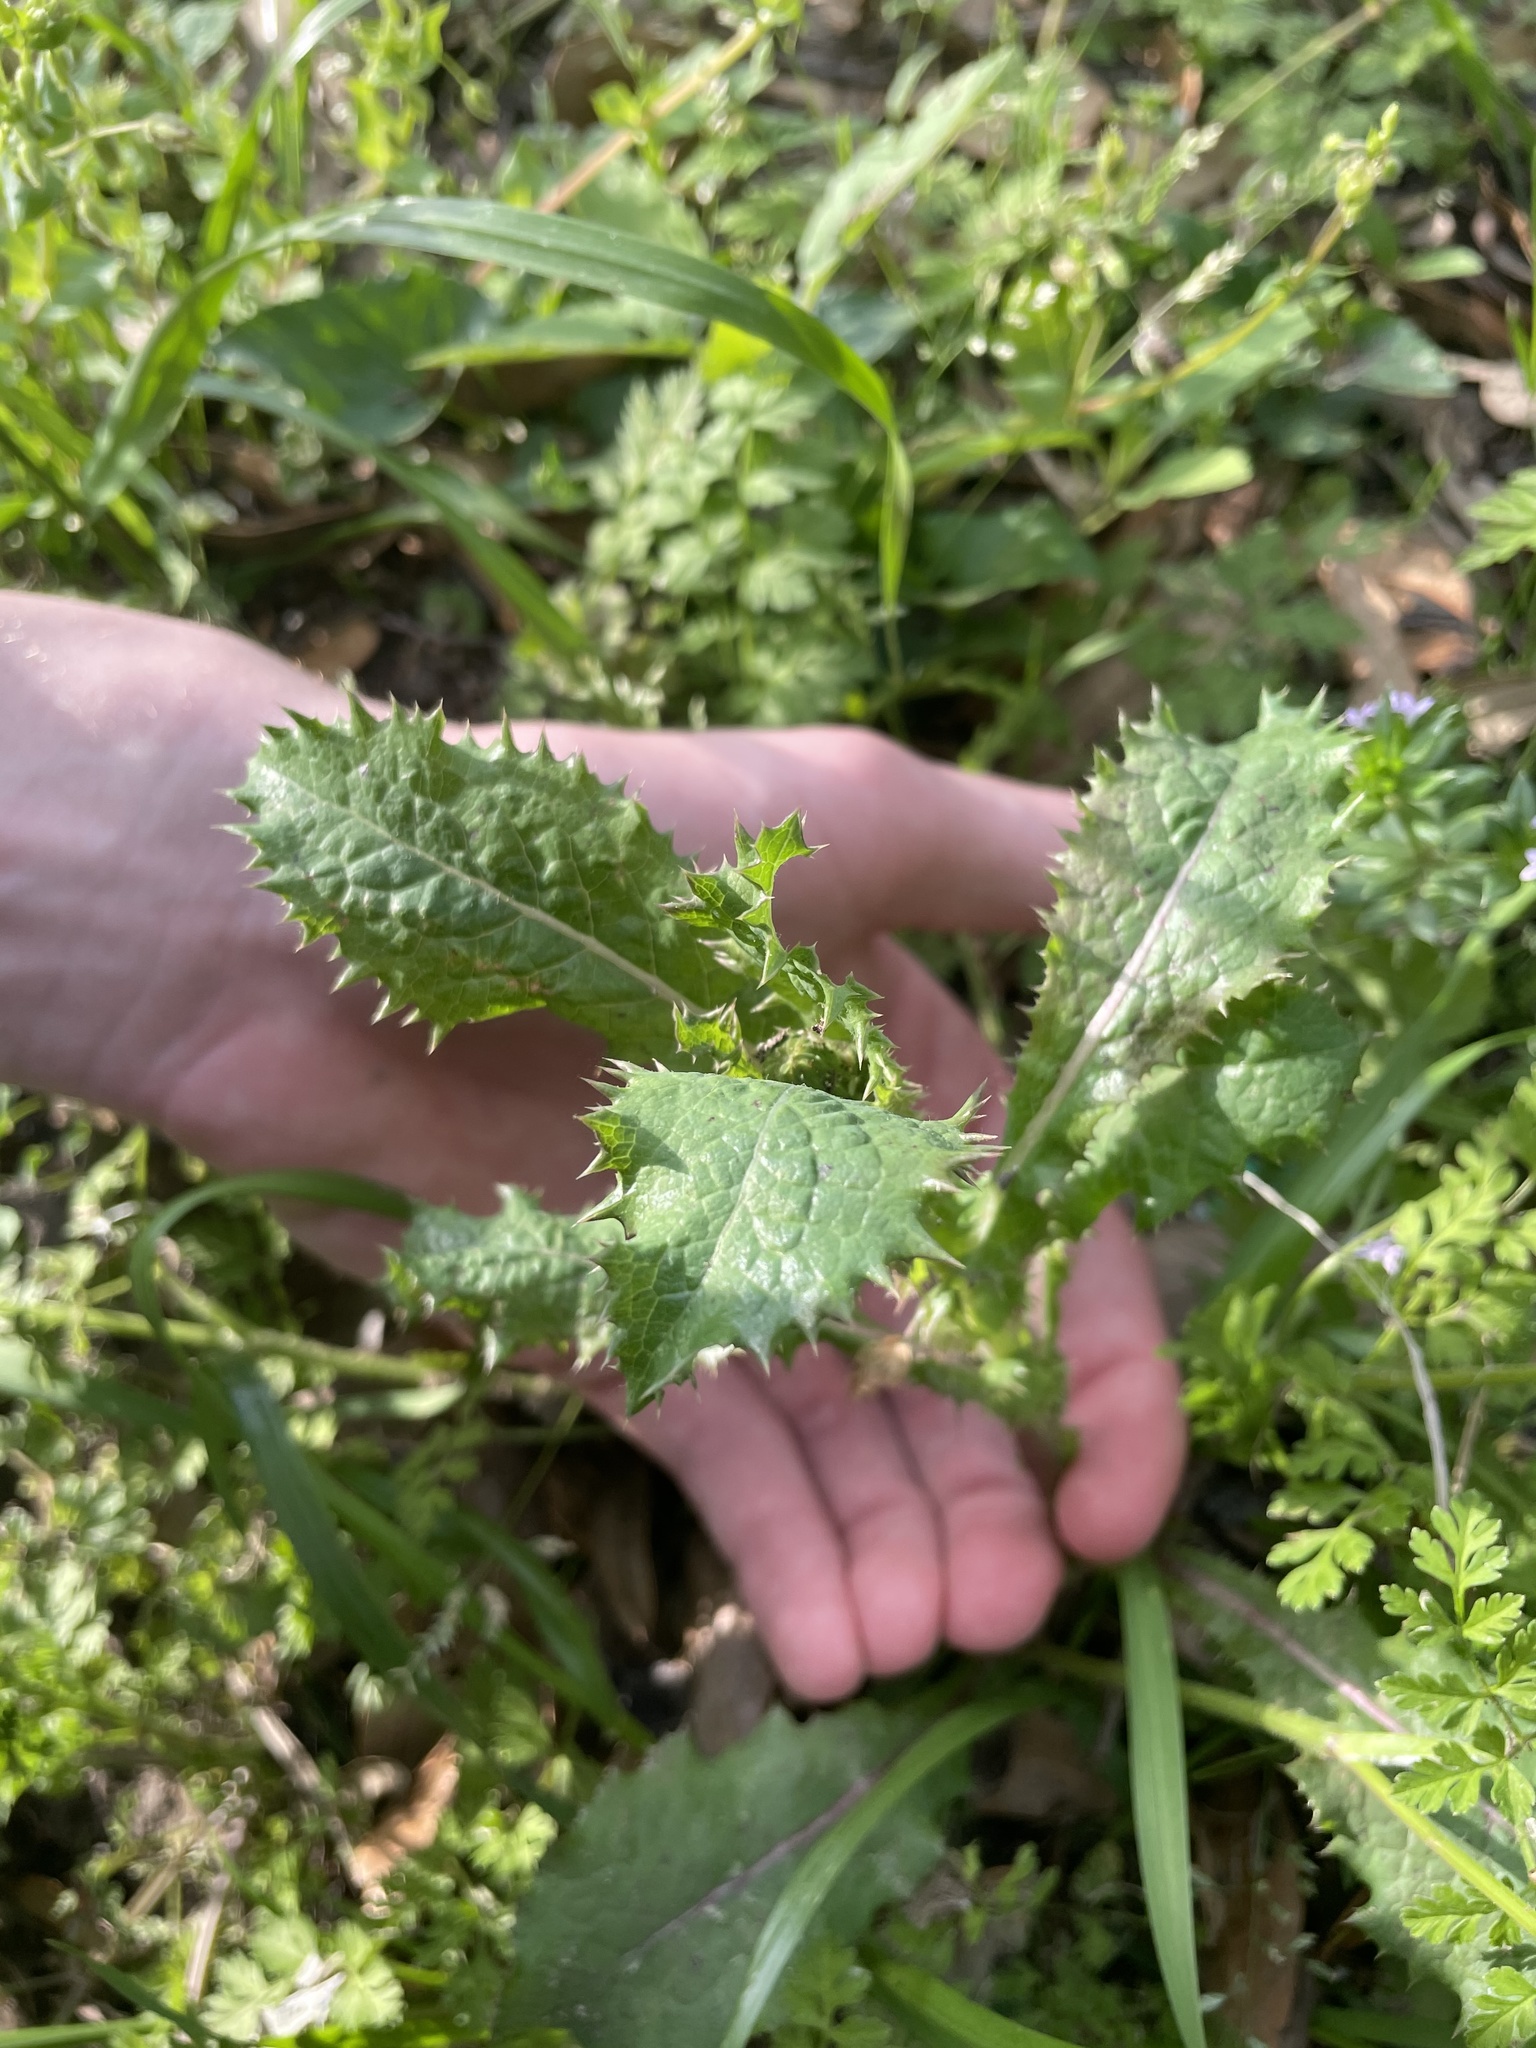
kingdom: Plantae
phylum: Tracheophyta
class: Magnoliopsida
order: Asterales
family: Asteraceae
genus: Sonchus
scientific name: Sonchus asper
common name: Prickly sow-thistle
